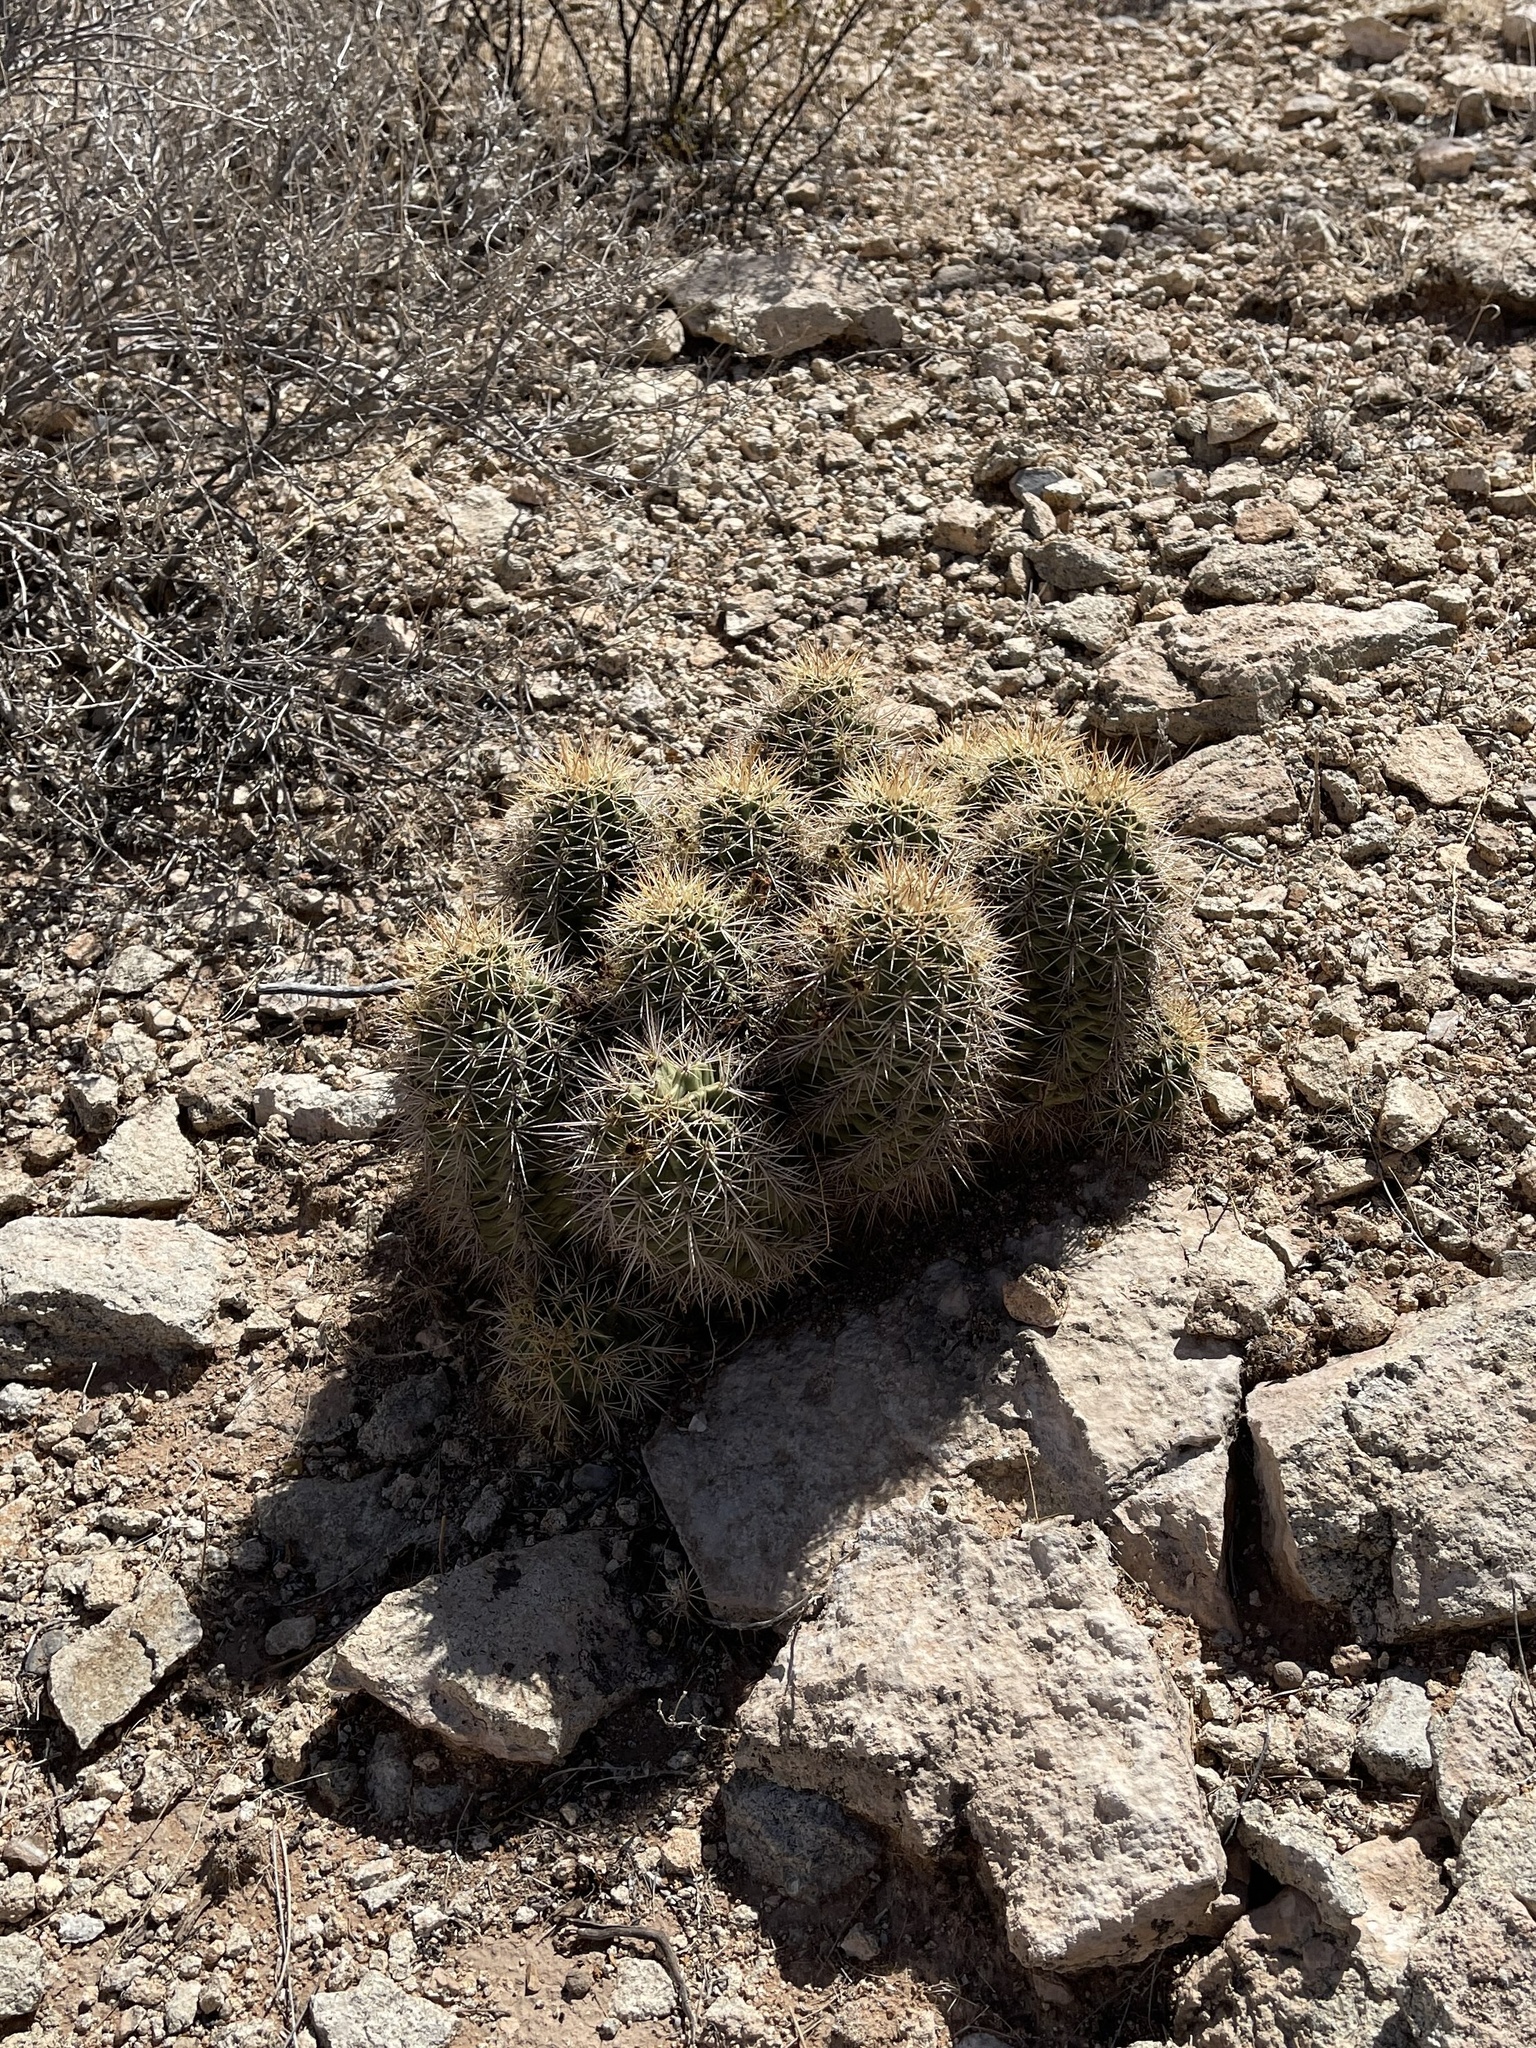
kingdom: Plantae
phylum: Tracheophyta
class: Magnoliopsida
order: Caryophyllales
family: Cactaceae
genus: Echinocereus
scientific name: Echinocereus coccineus
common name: Scarlet hedgehog cactus
